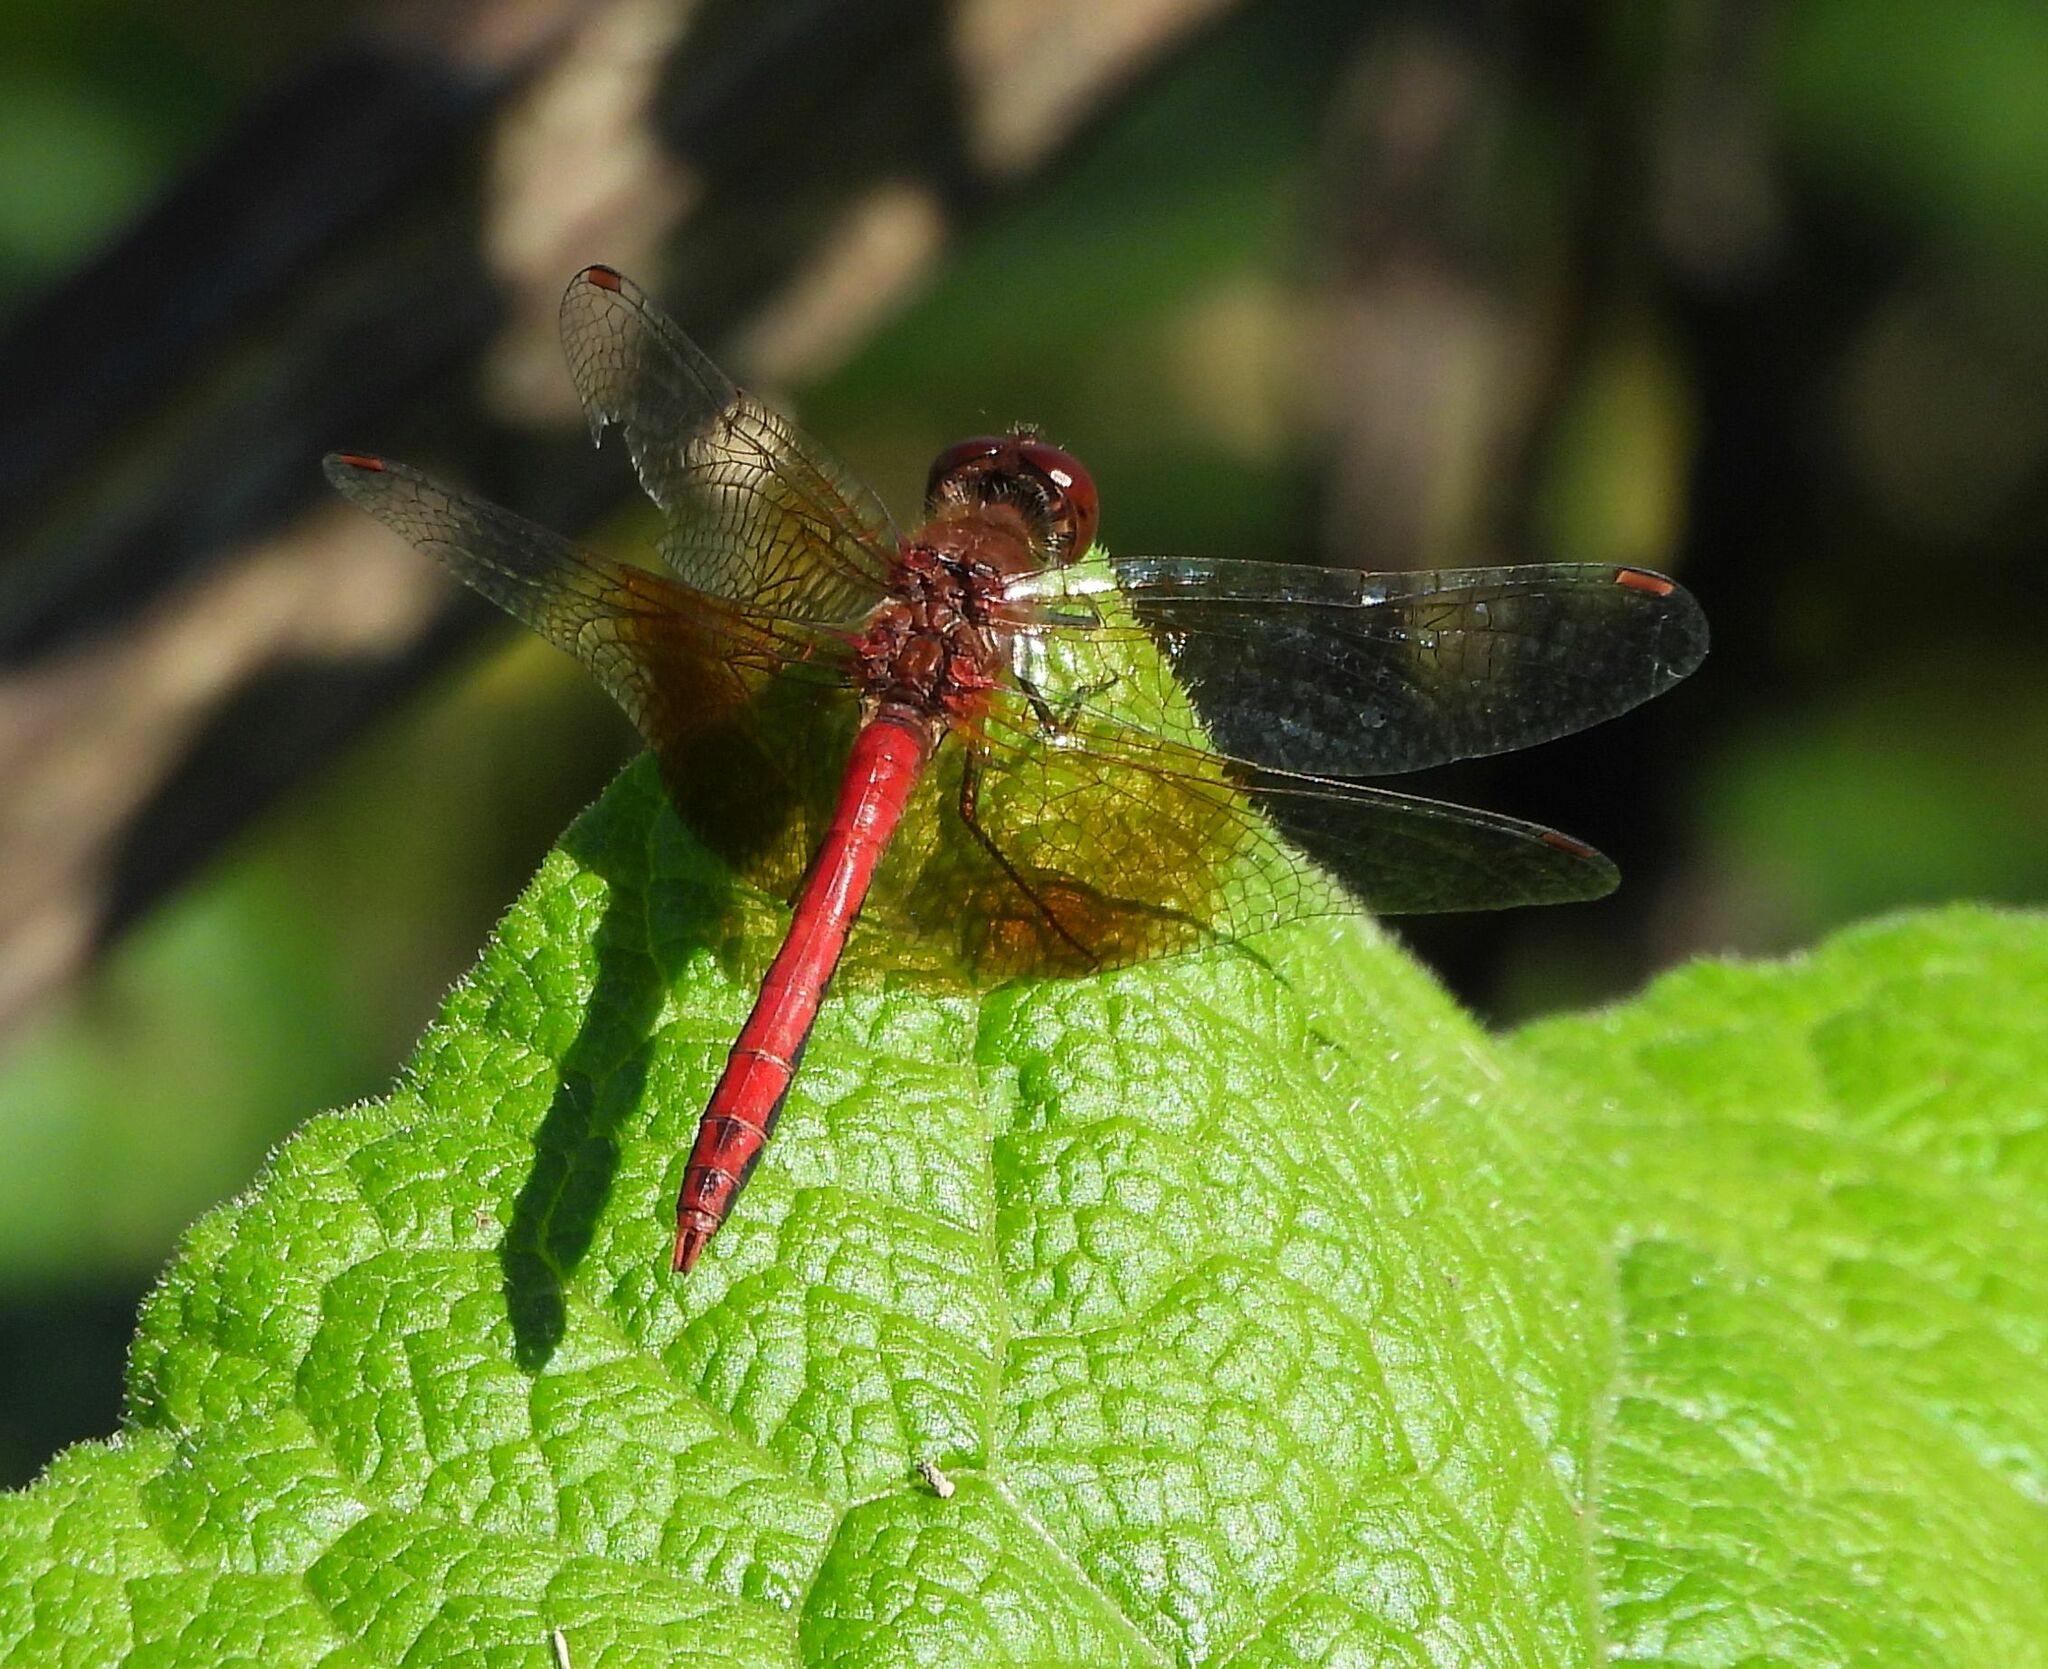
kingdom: Animalia
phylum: Arthropoda
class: Insecta
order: Odonata
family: Libellulidae
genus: Sympetrum
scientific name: Sympetrum semicinctum
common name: Band-winged meadowhawk
